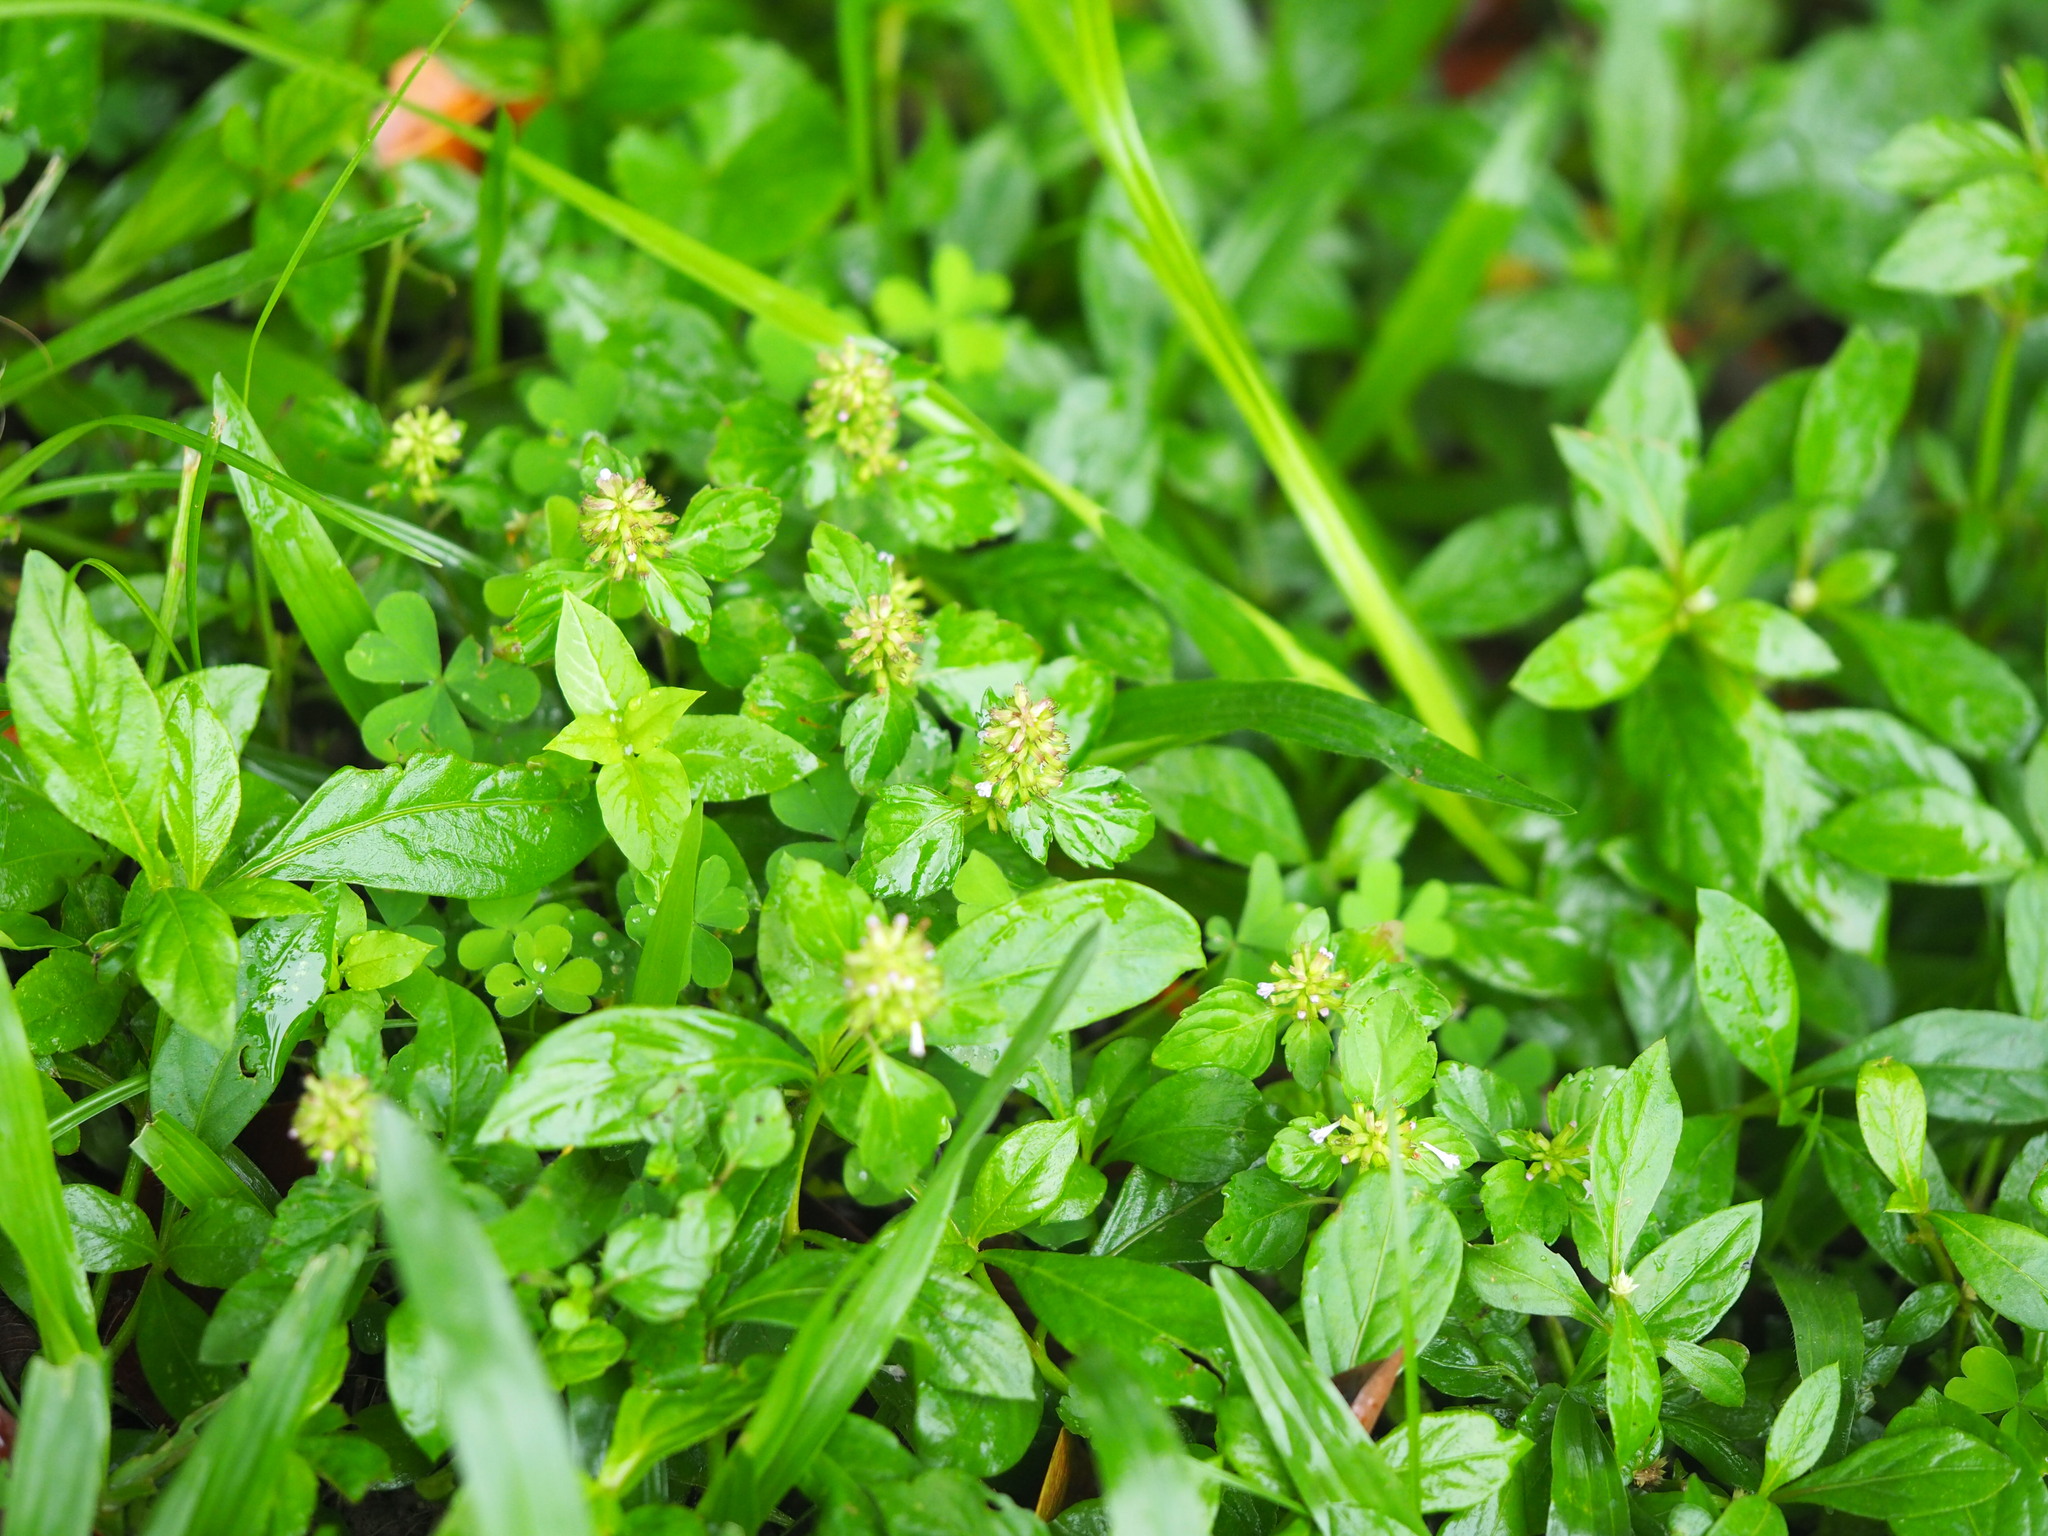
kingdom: Plantae
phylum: Tracheophyta
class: Magnoliopsida
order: Lamiales
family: Lamiaceae
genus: Clinopodium
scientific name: Clinopodium gracile
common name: Slender wild basil
